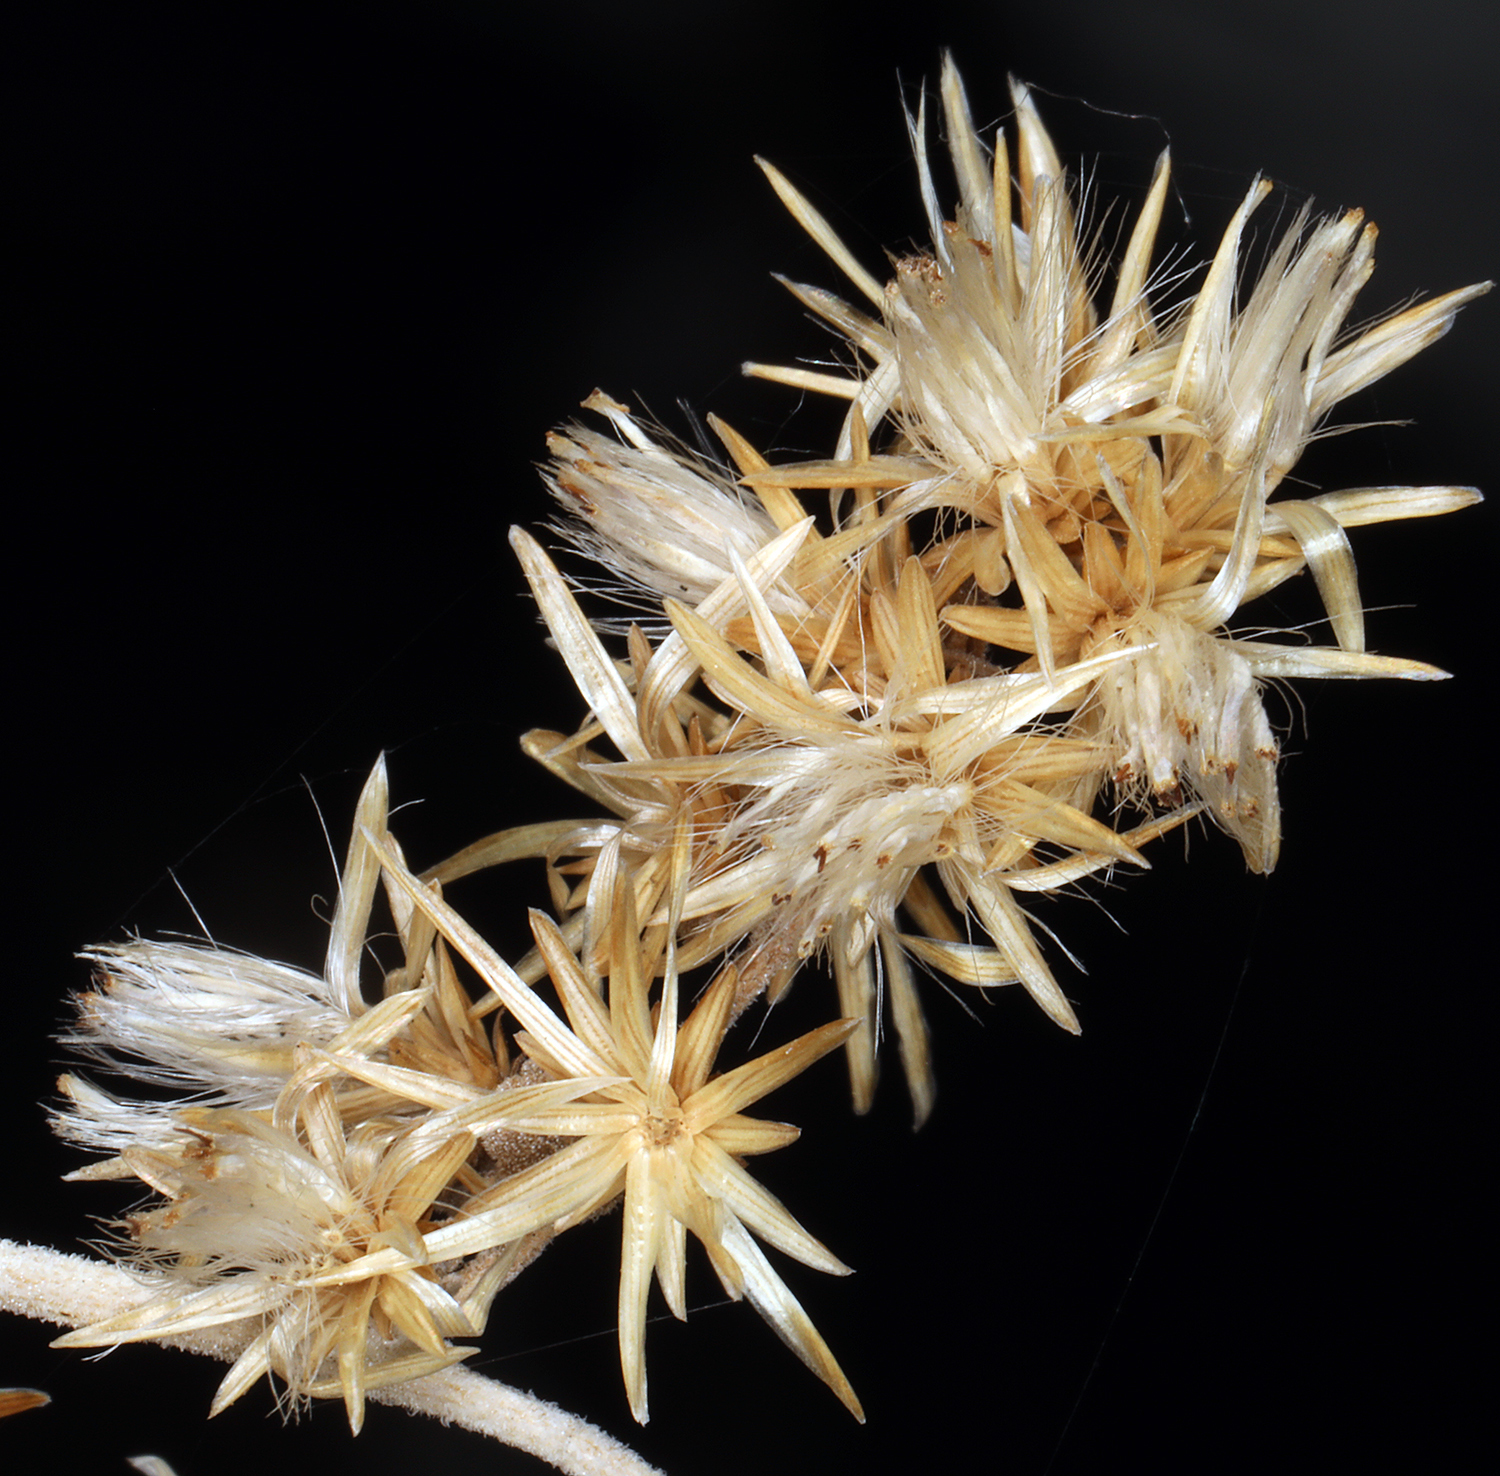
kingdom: Plantae
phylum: Tracheophyta
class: Magnoliopsida
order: Asterales
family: Asteraceae
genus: Brickellia
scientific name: Brickellia californica
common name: California brickellbush
